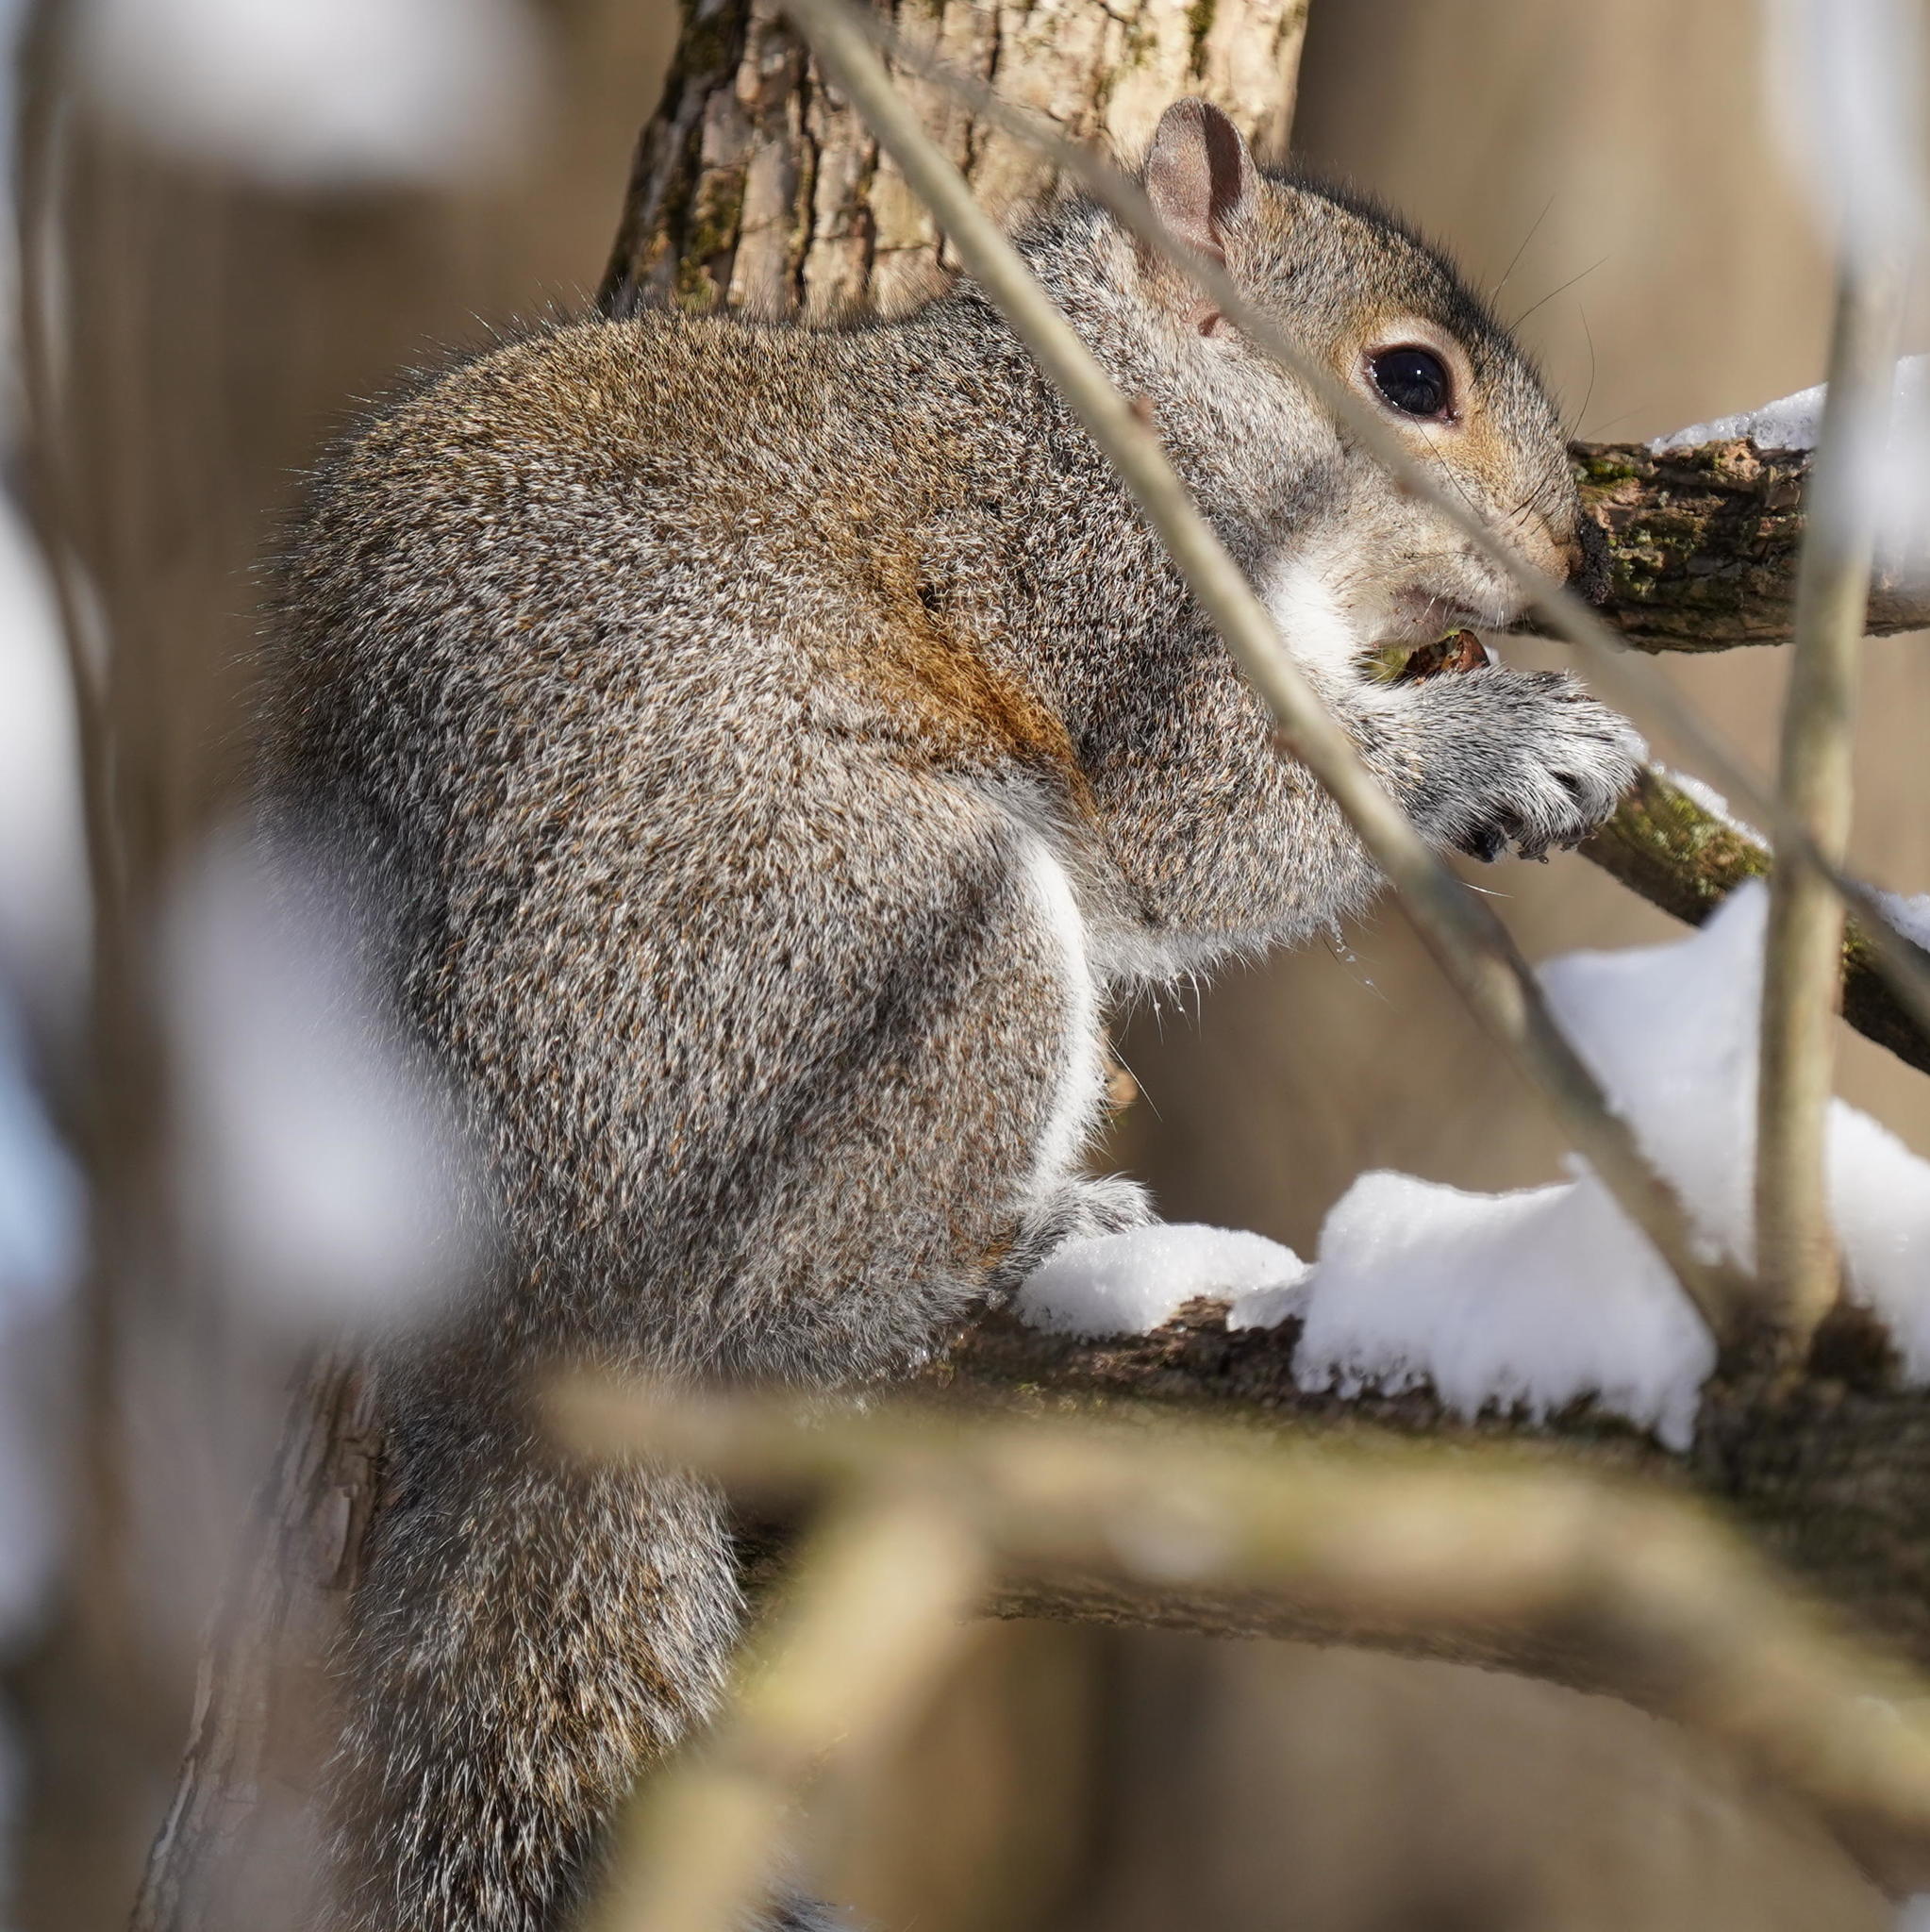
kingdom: Animalia
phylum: Chordata
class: Mammalia
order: Rodentia
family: Sciuridae
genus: Sciurus
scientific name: Sciurus carolinensis
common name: Eastern gray squirrel
